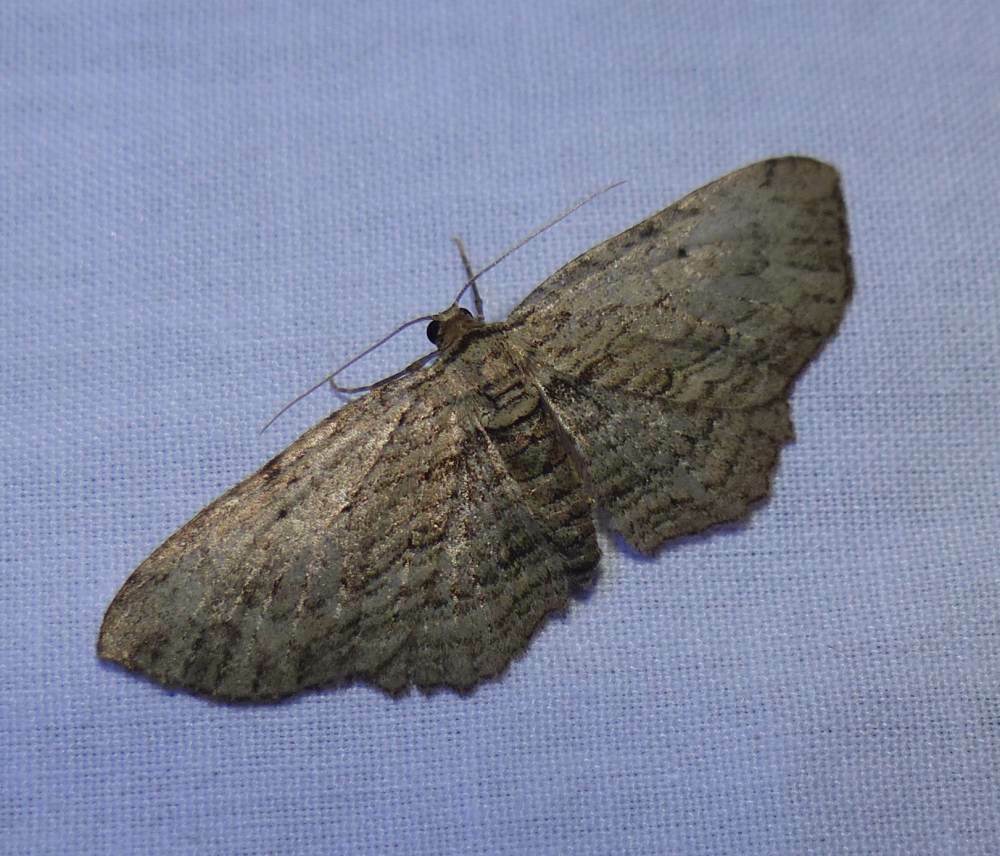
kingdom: Animalia
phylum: Arthropoda
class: Insecta
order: Lepidoptera
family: Geometridae
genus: Horisme
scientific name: Horisme intestinata
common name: Brown bark carpet
